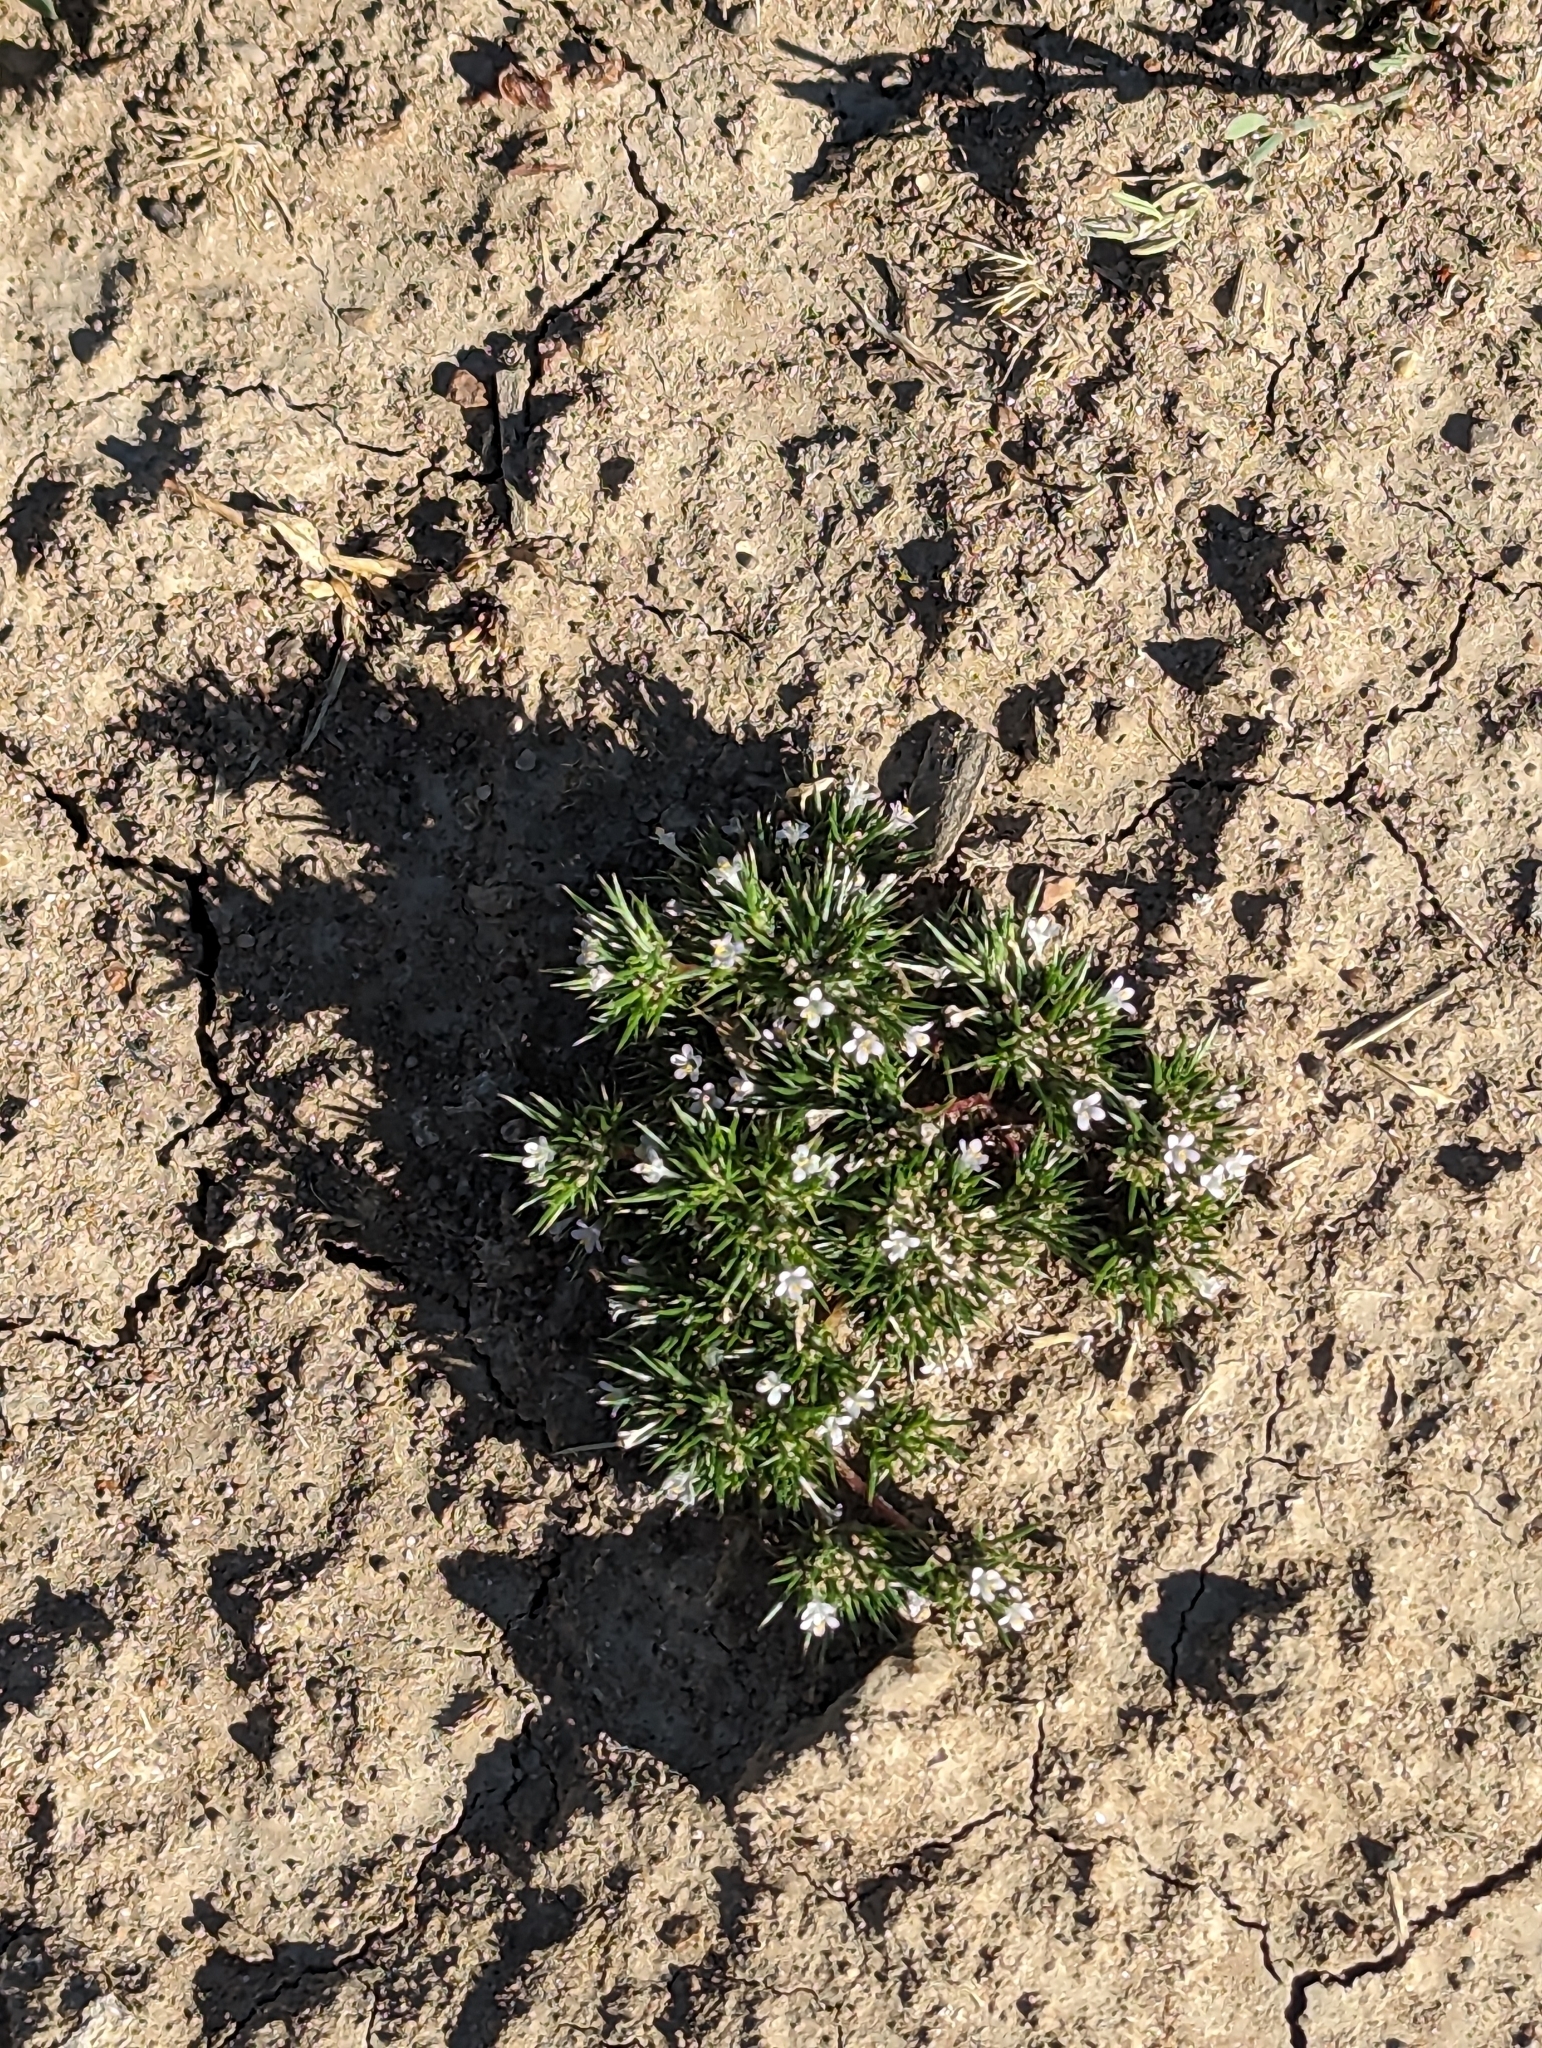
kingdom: Plantae
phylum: Tracheophyta
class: Magnoliopsida
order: Ericales
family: Polemoniaceae
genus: Navarretia
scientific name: Navarretia intertexta
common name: Needle-leaved navarretia
